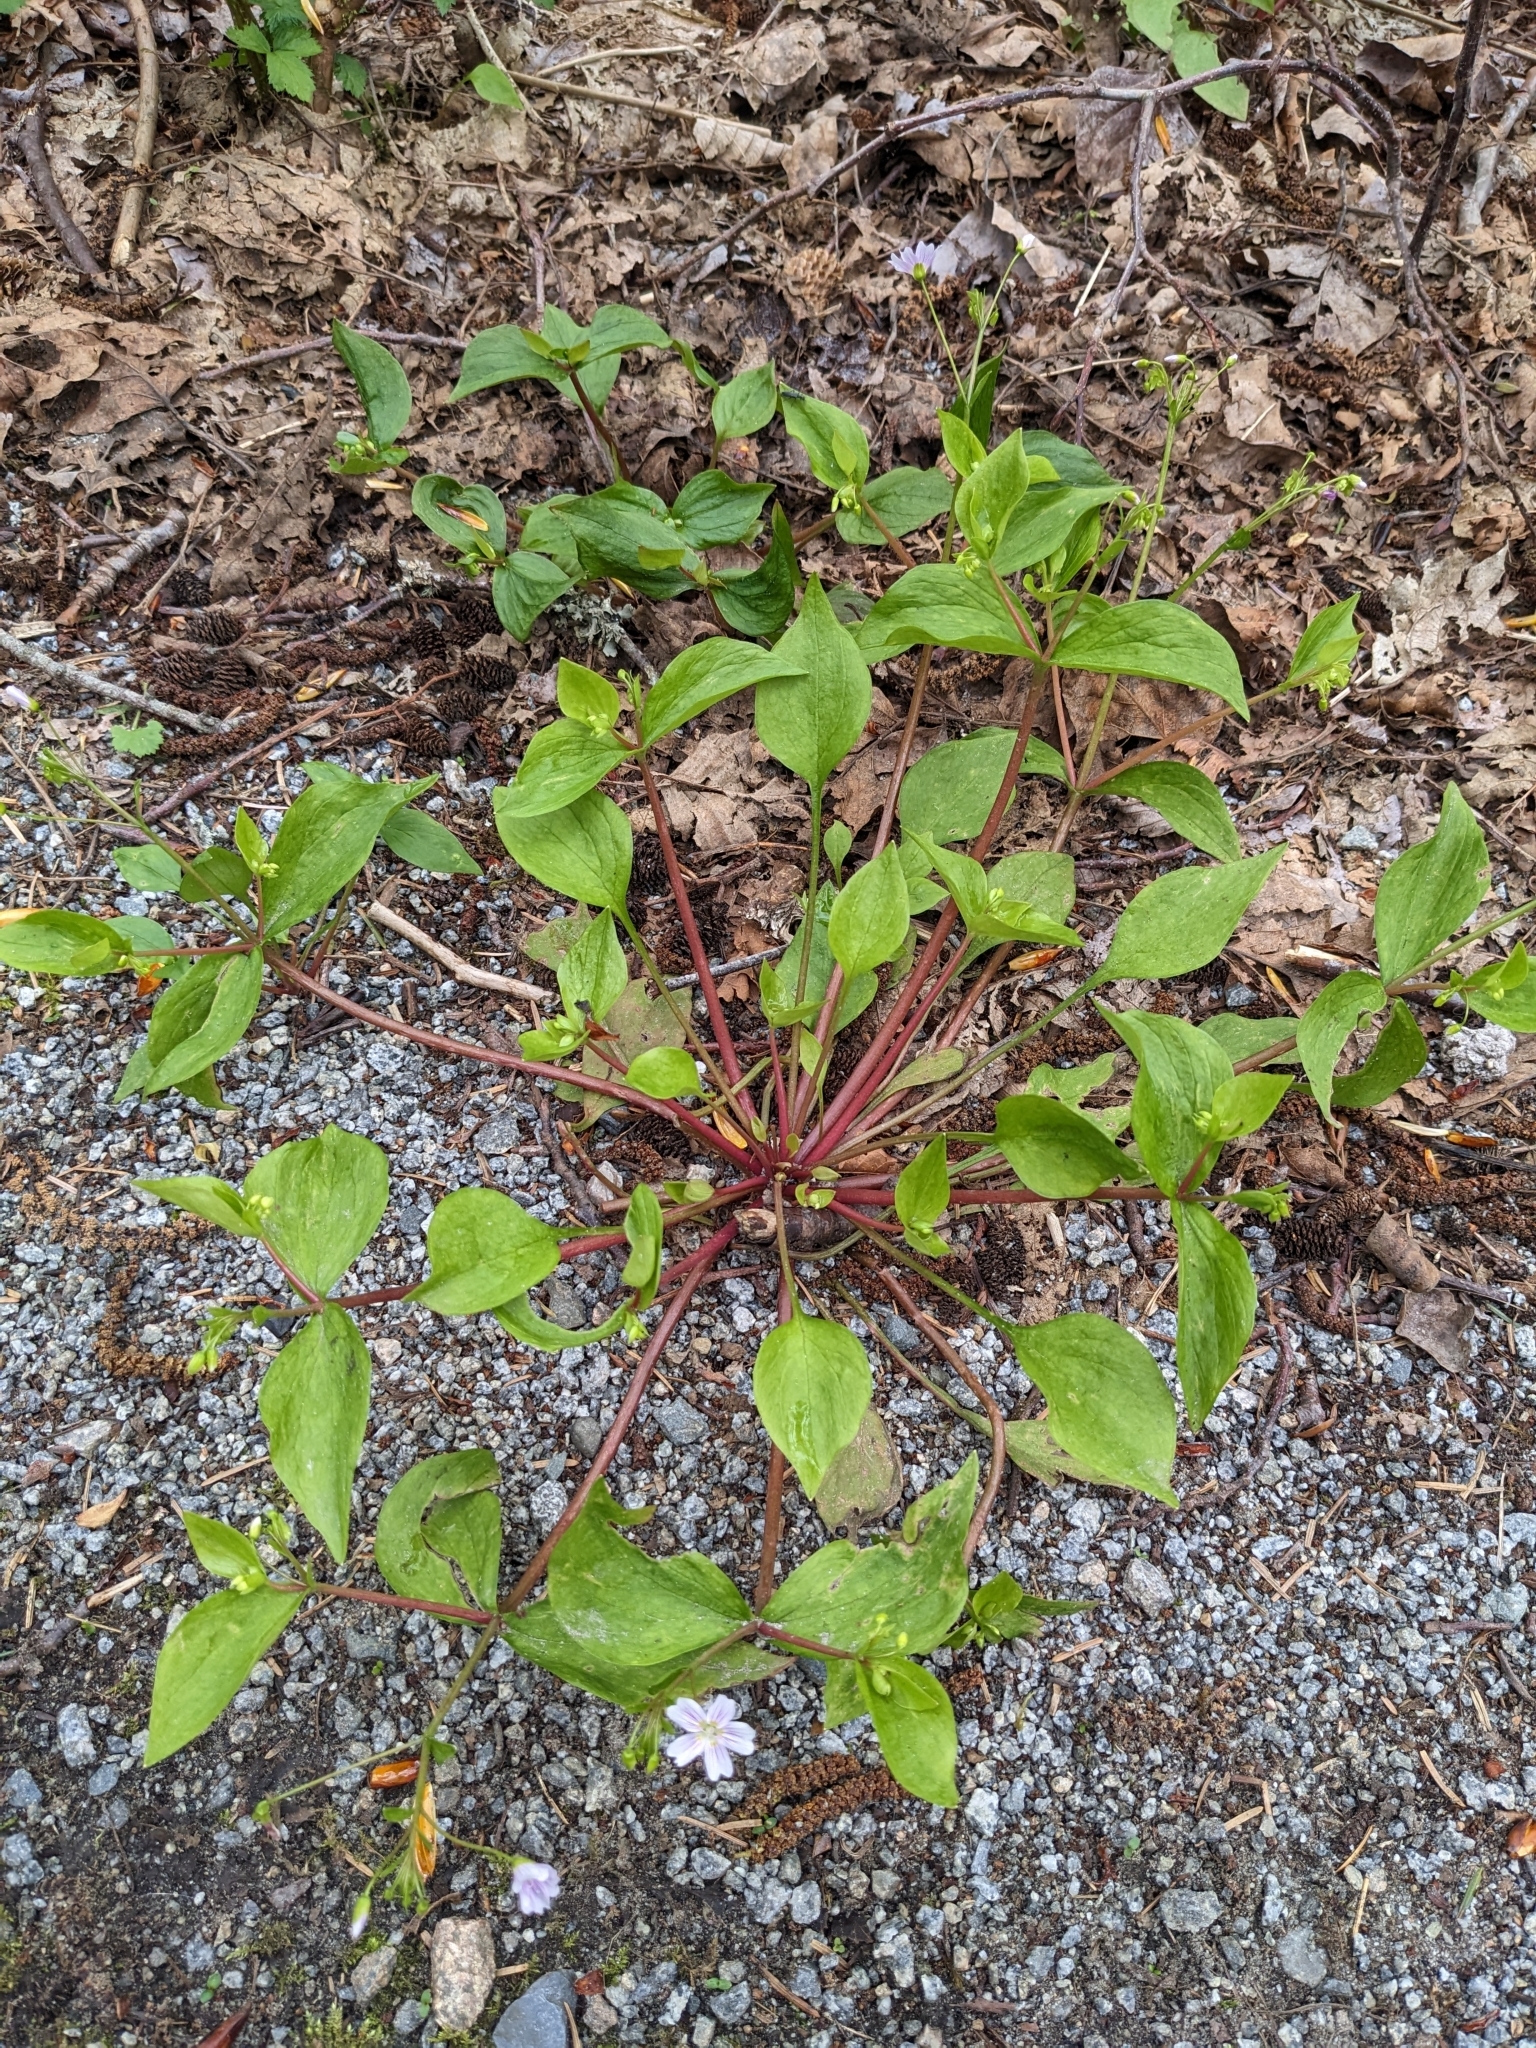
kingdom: Plantae
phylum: Tracheophyta
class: Magnoliopsida
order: Caryophyllales
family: Montiaceae
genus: Claytonia
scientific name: Claytonia sibirica
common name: Pink purslane
